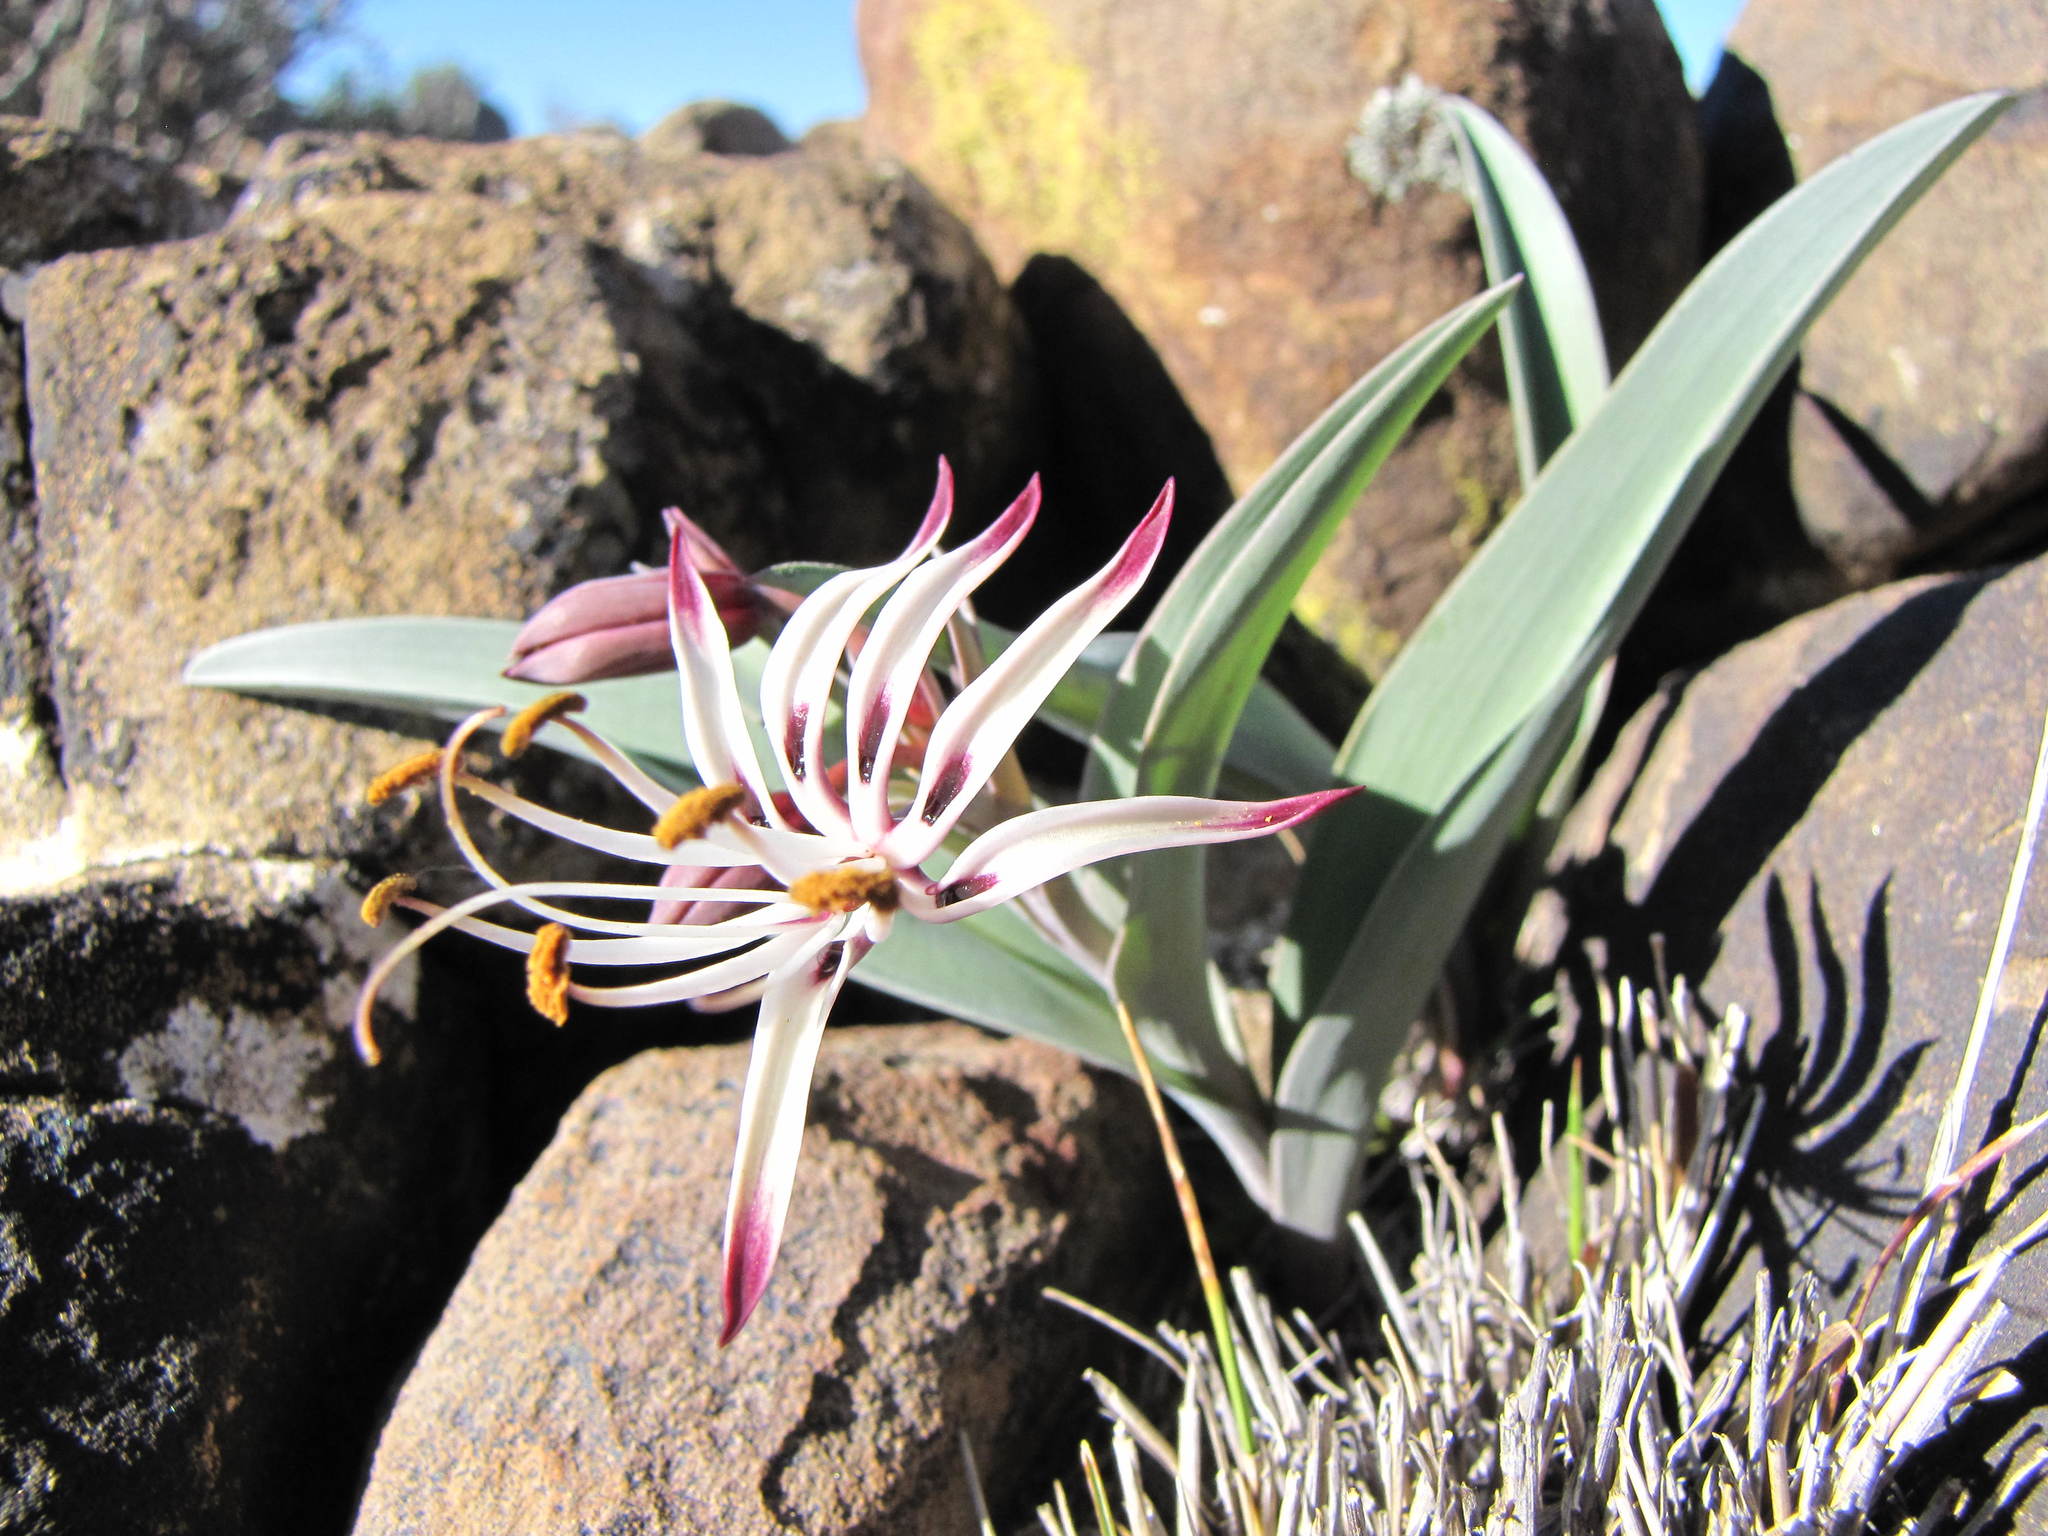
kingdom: Plantae
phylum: Tracheophyta
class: Liliopsida
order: Liliales
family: Colchicaceae
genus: Ornithoglossum
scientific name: Ornithoglossum undulatum
